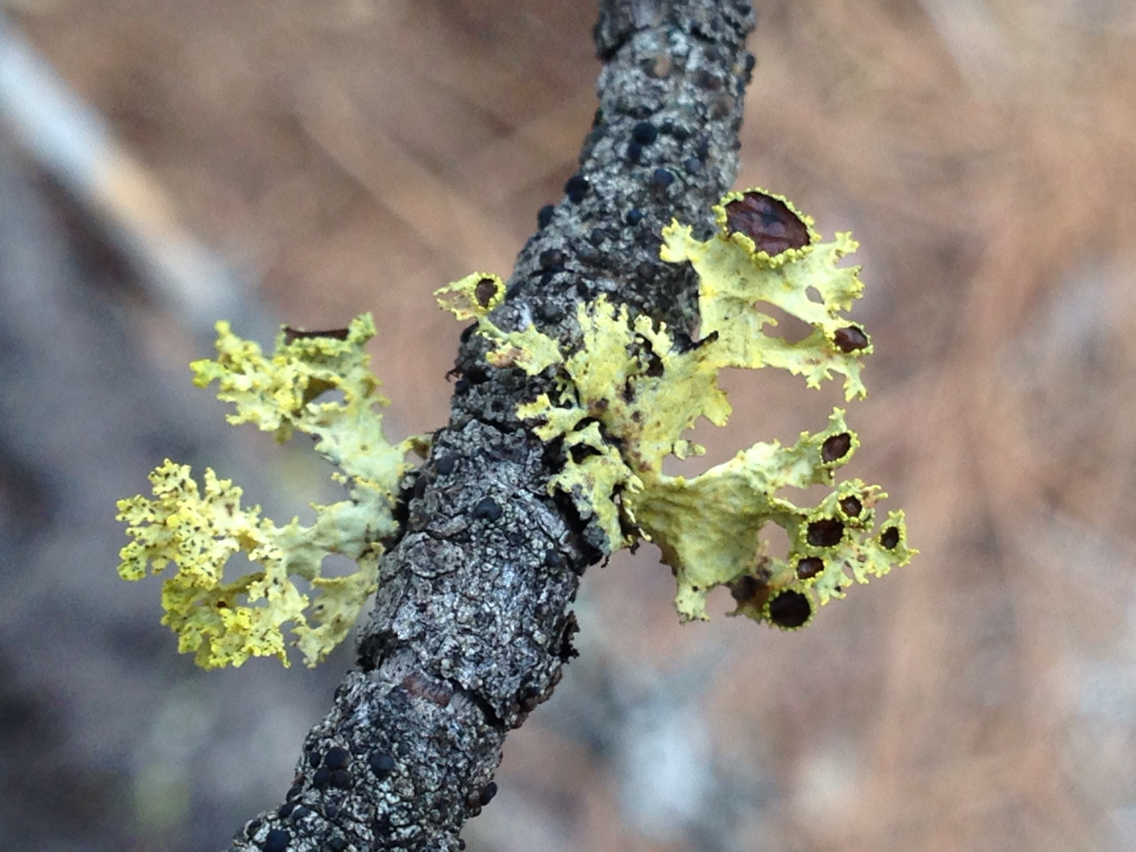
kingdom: Fungi
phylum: Ascomycota
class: Lecanoromycetes
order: Lecanorales
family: Parmeliaceae
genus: Vulpicida
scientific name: Vulpicida canadensis
